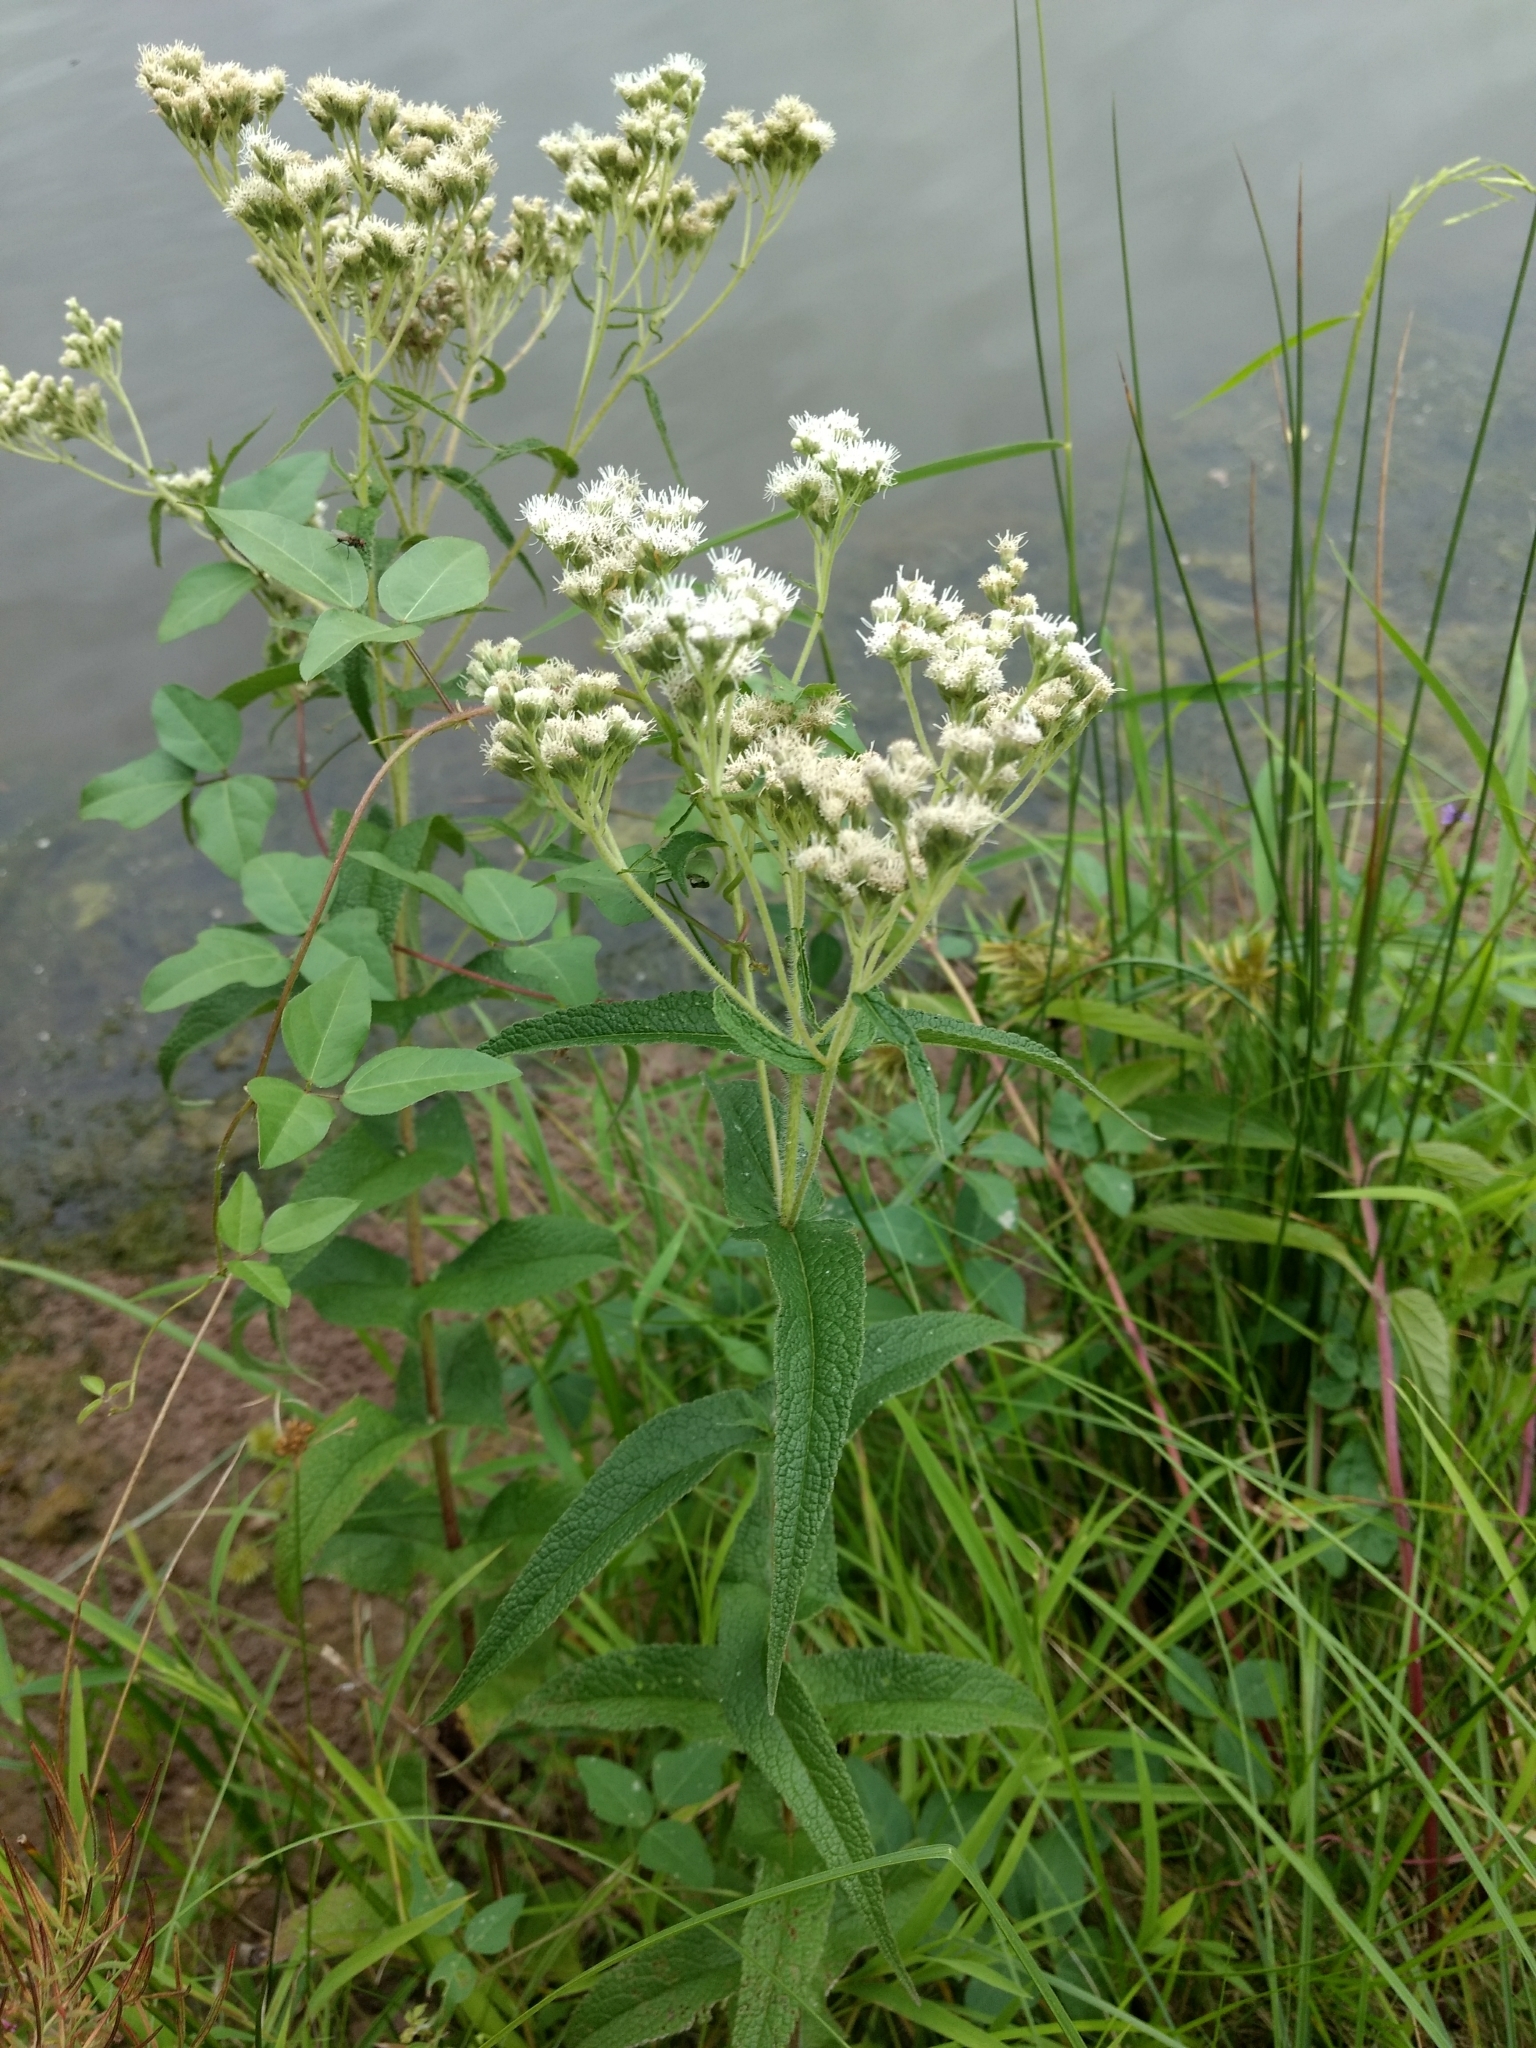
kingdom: Plantae
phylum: Tracheophyta
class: Magnoliopsida
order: Asterales
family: Asteraceae
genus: Eupatorium
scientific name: Eupatorium perfoliatum
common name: Boneset
